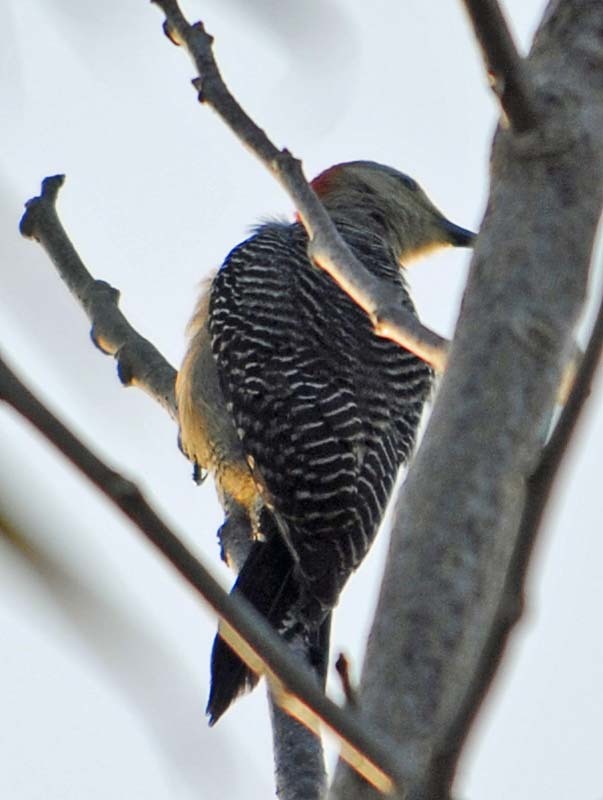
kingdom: Animalia
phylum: Chordata
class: Aves
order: Piciformes
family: Picidae
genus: Melanerpes
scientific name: Melanerpes aurifrons
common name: Golden-fronted woodpecker
